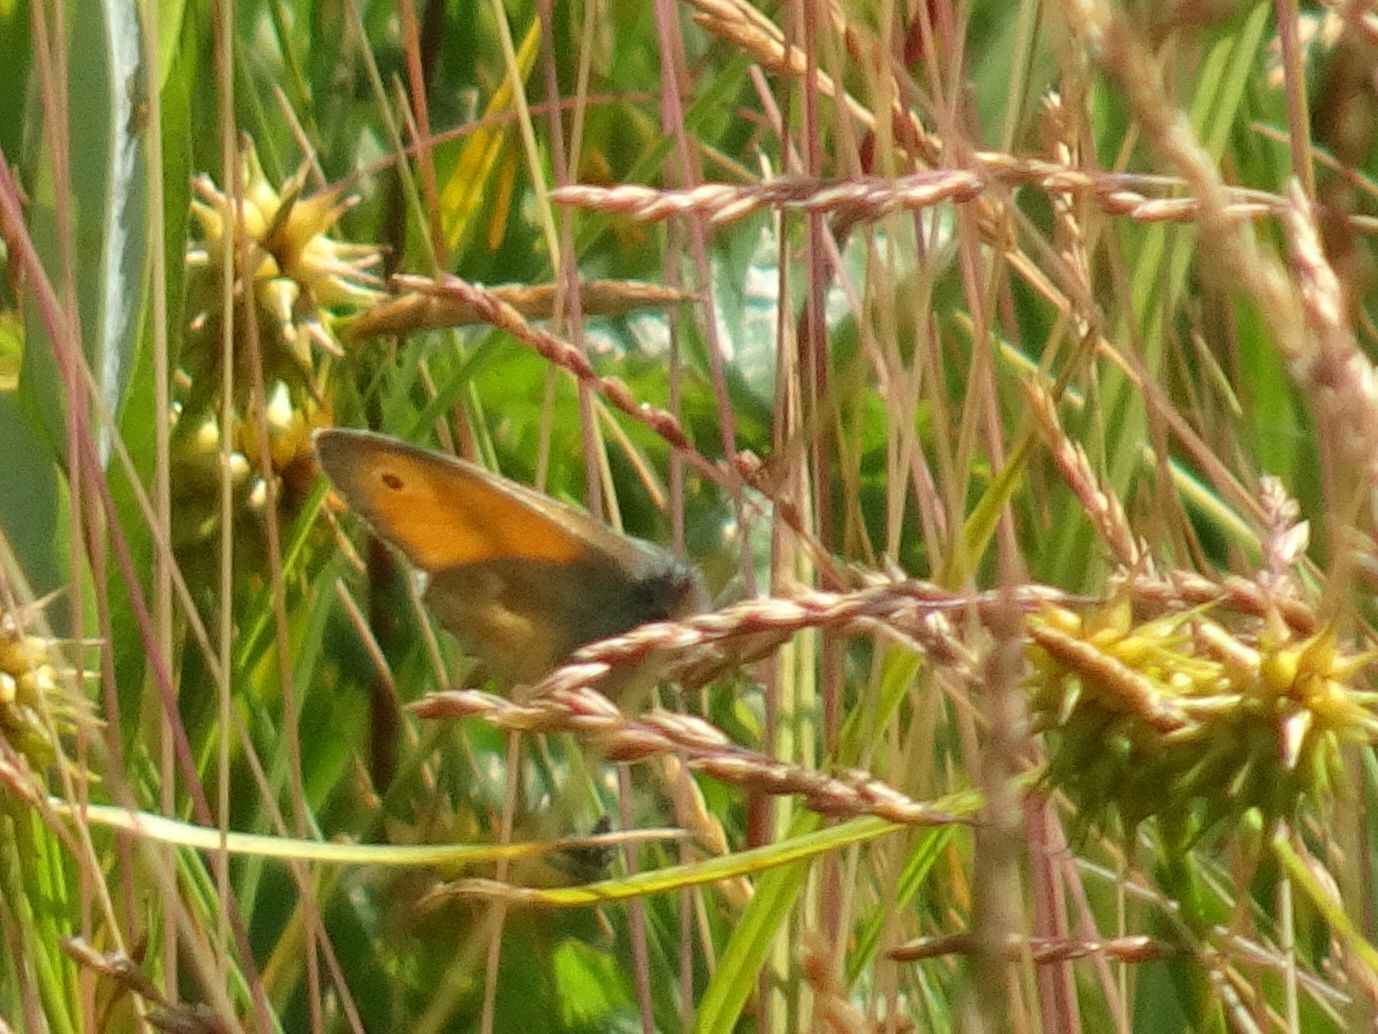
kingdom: Animalia
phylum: Arthropoda
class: Insecta
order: Lepidoptera
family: Nymphalidae
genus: Coenonympha
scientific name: Coenonympha pamphilus
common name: Small heath
